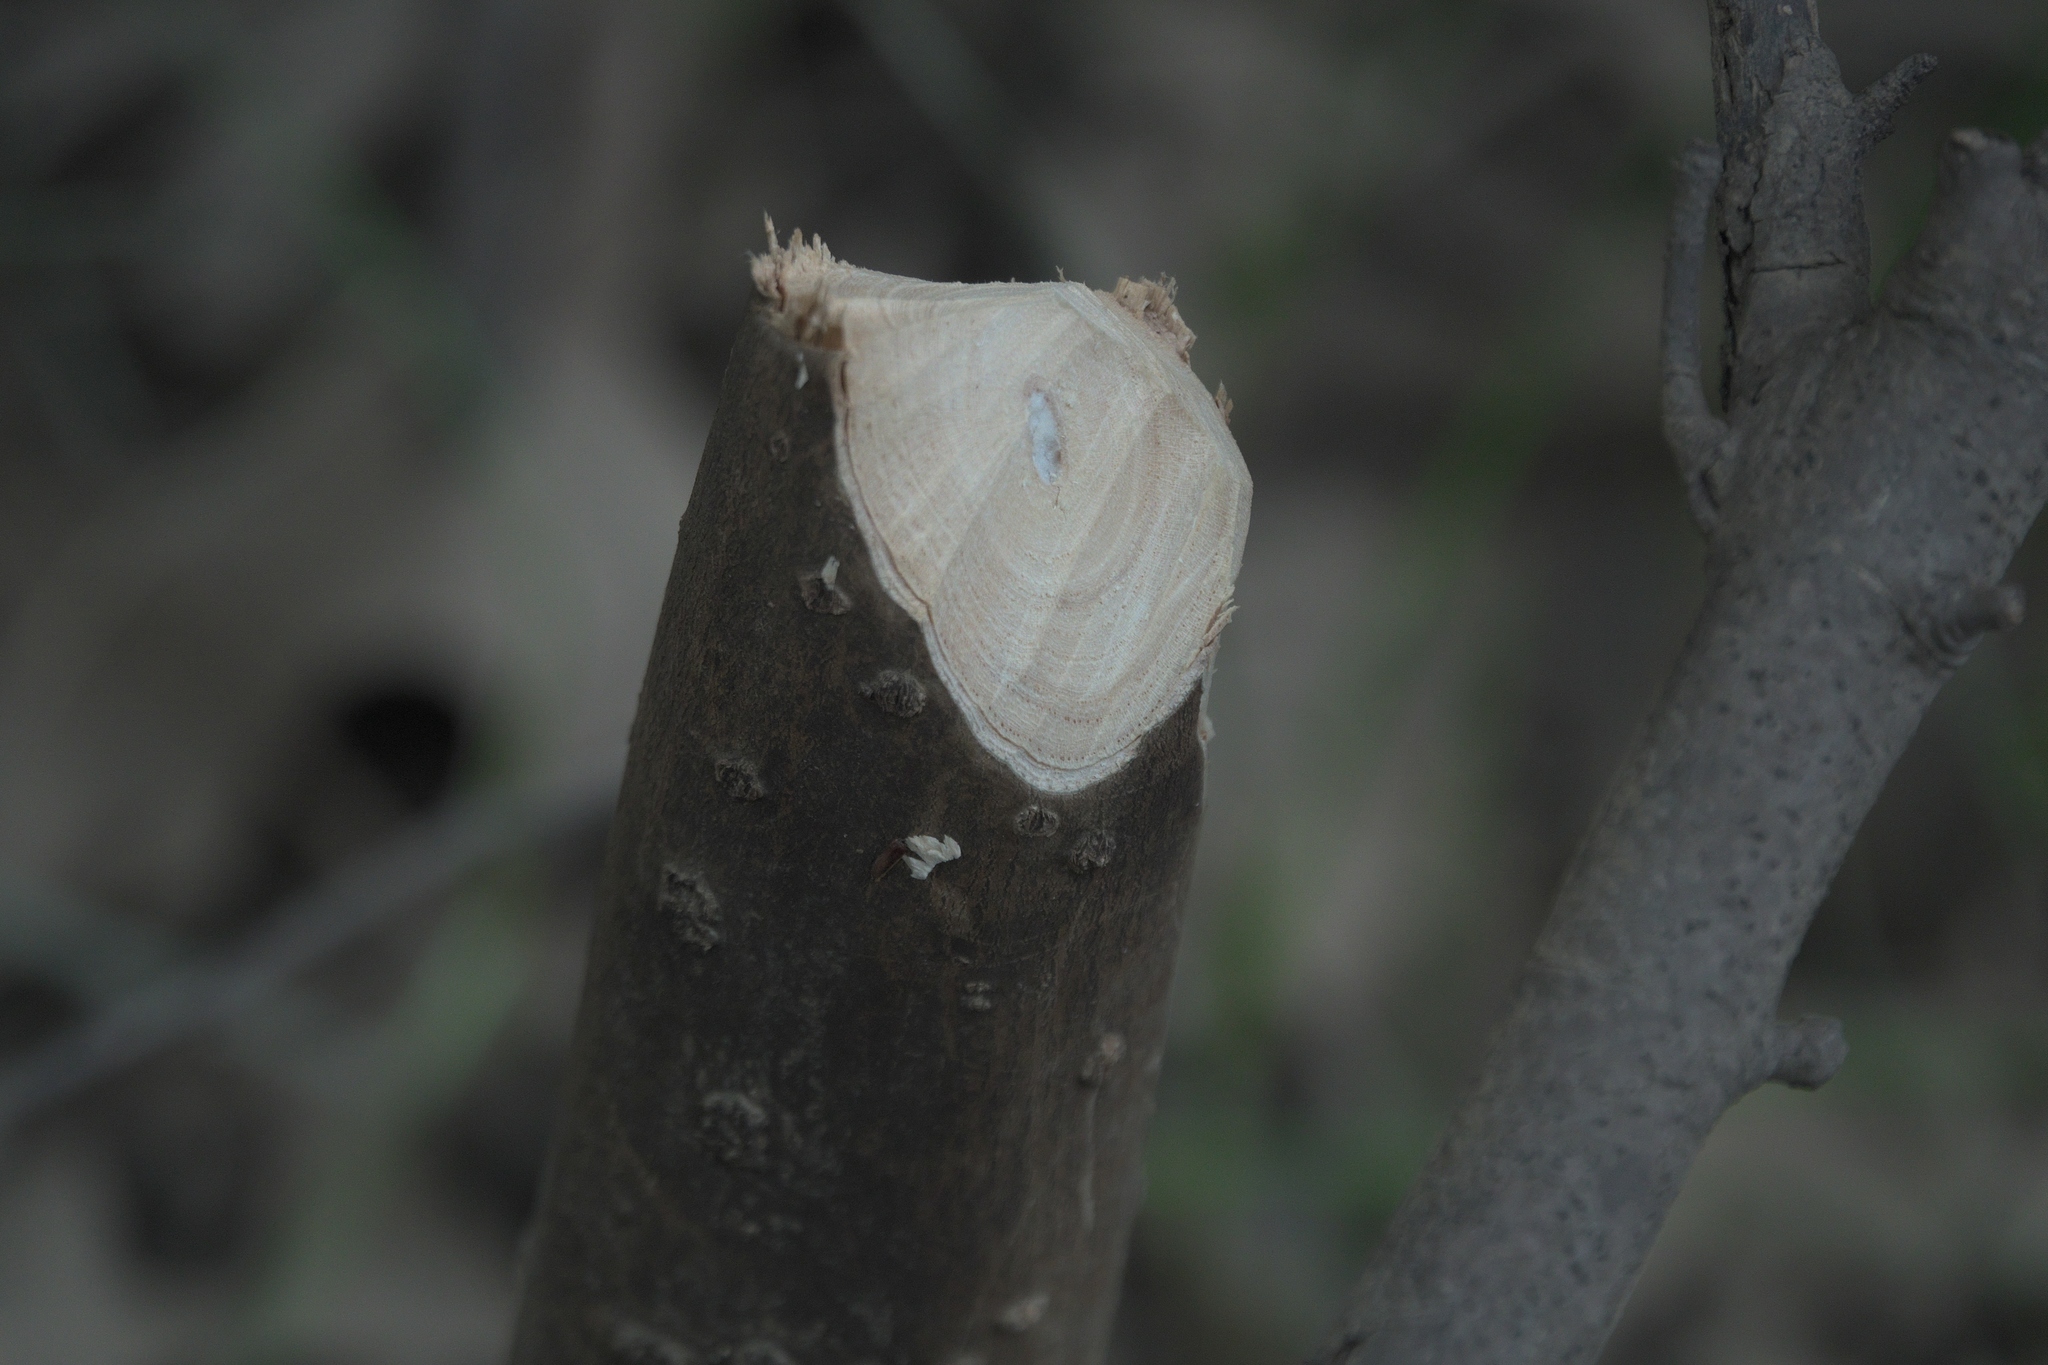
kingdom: Animalia
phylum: Chordata
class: Mammalia
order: Rodentia
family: Castoridae
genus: Castor
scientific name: Castor canadensis
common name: American beaver
